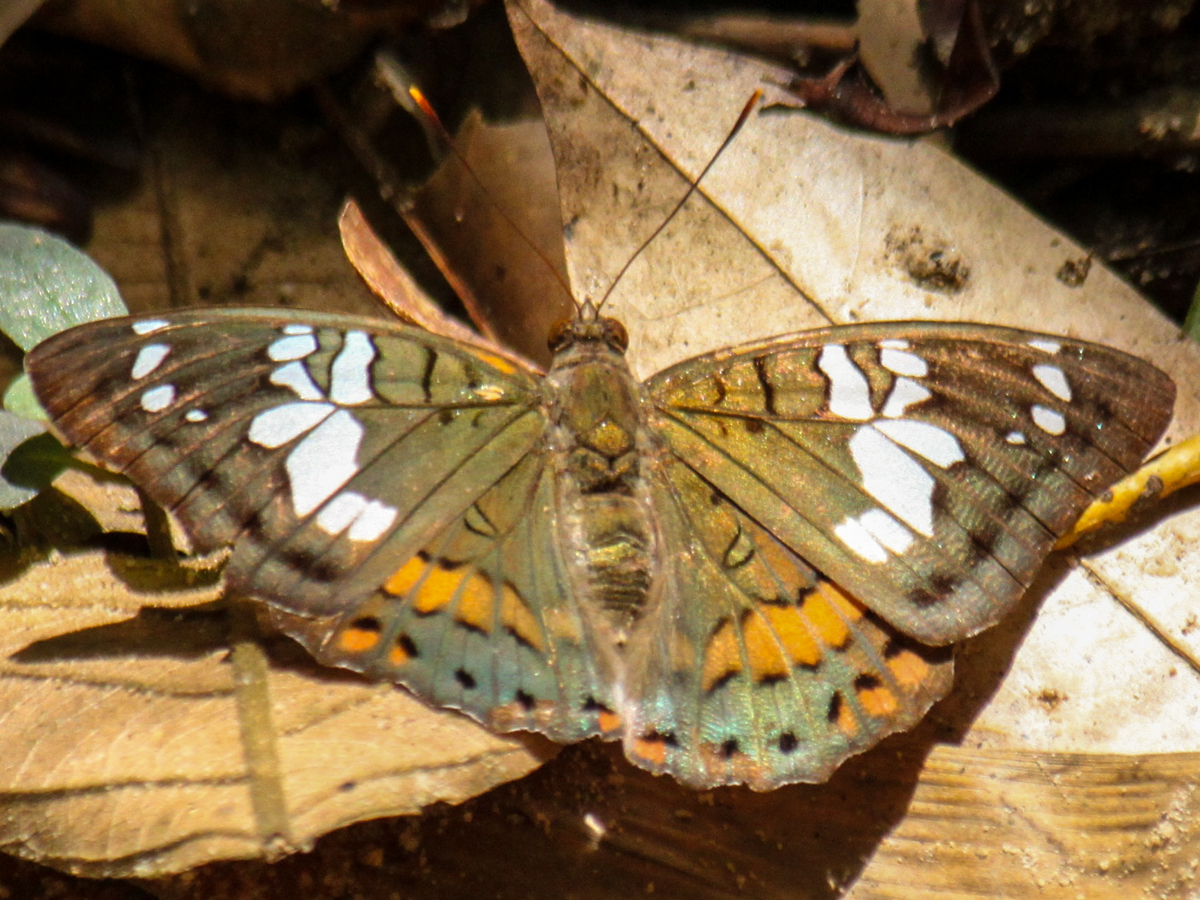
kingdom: Animalia
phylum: Arthropoda
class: Insecta
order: Lepidoptera
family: Nymphalidae
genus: Euthalia
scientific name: Euthalia djata
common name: Red-spot baron
